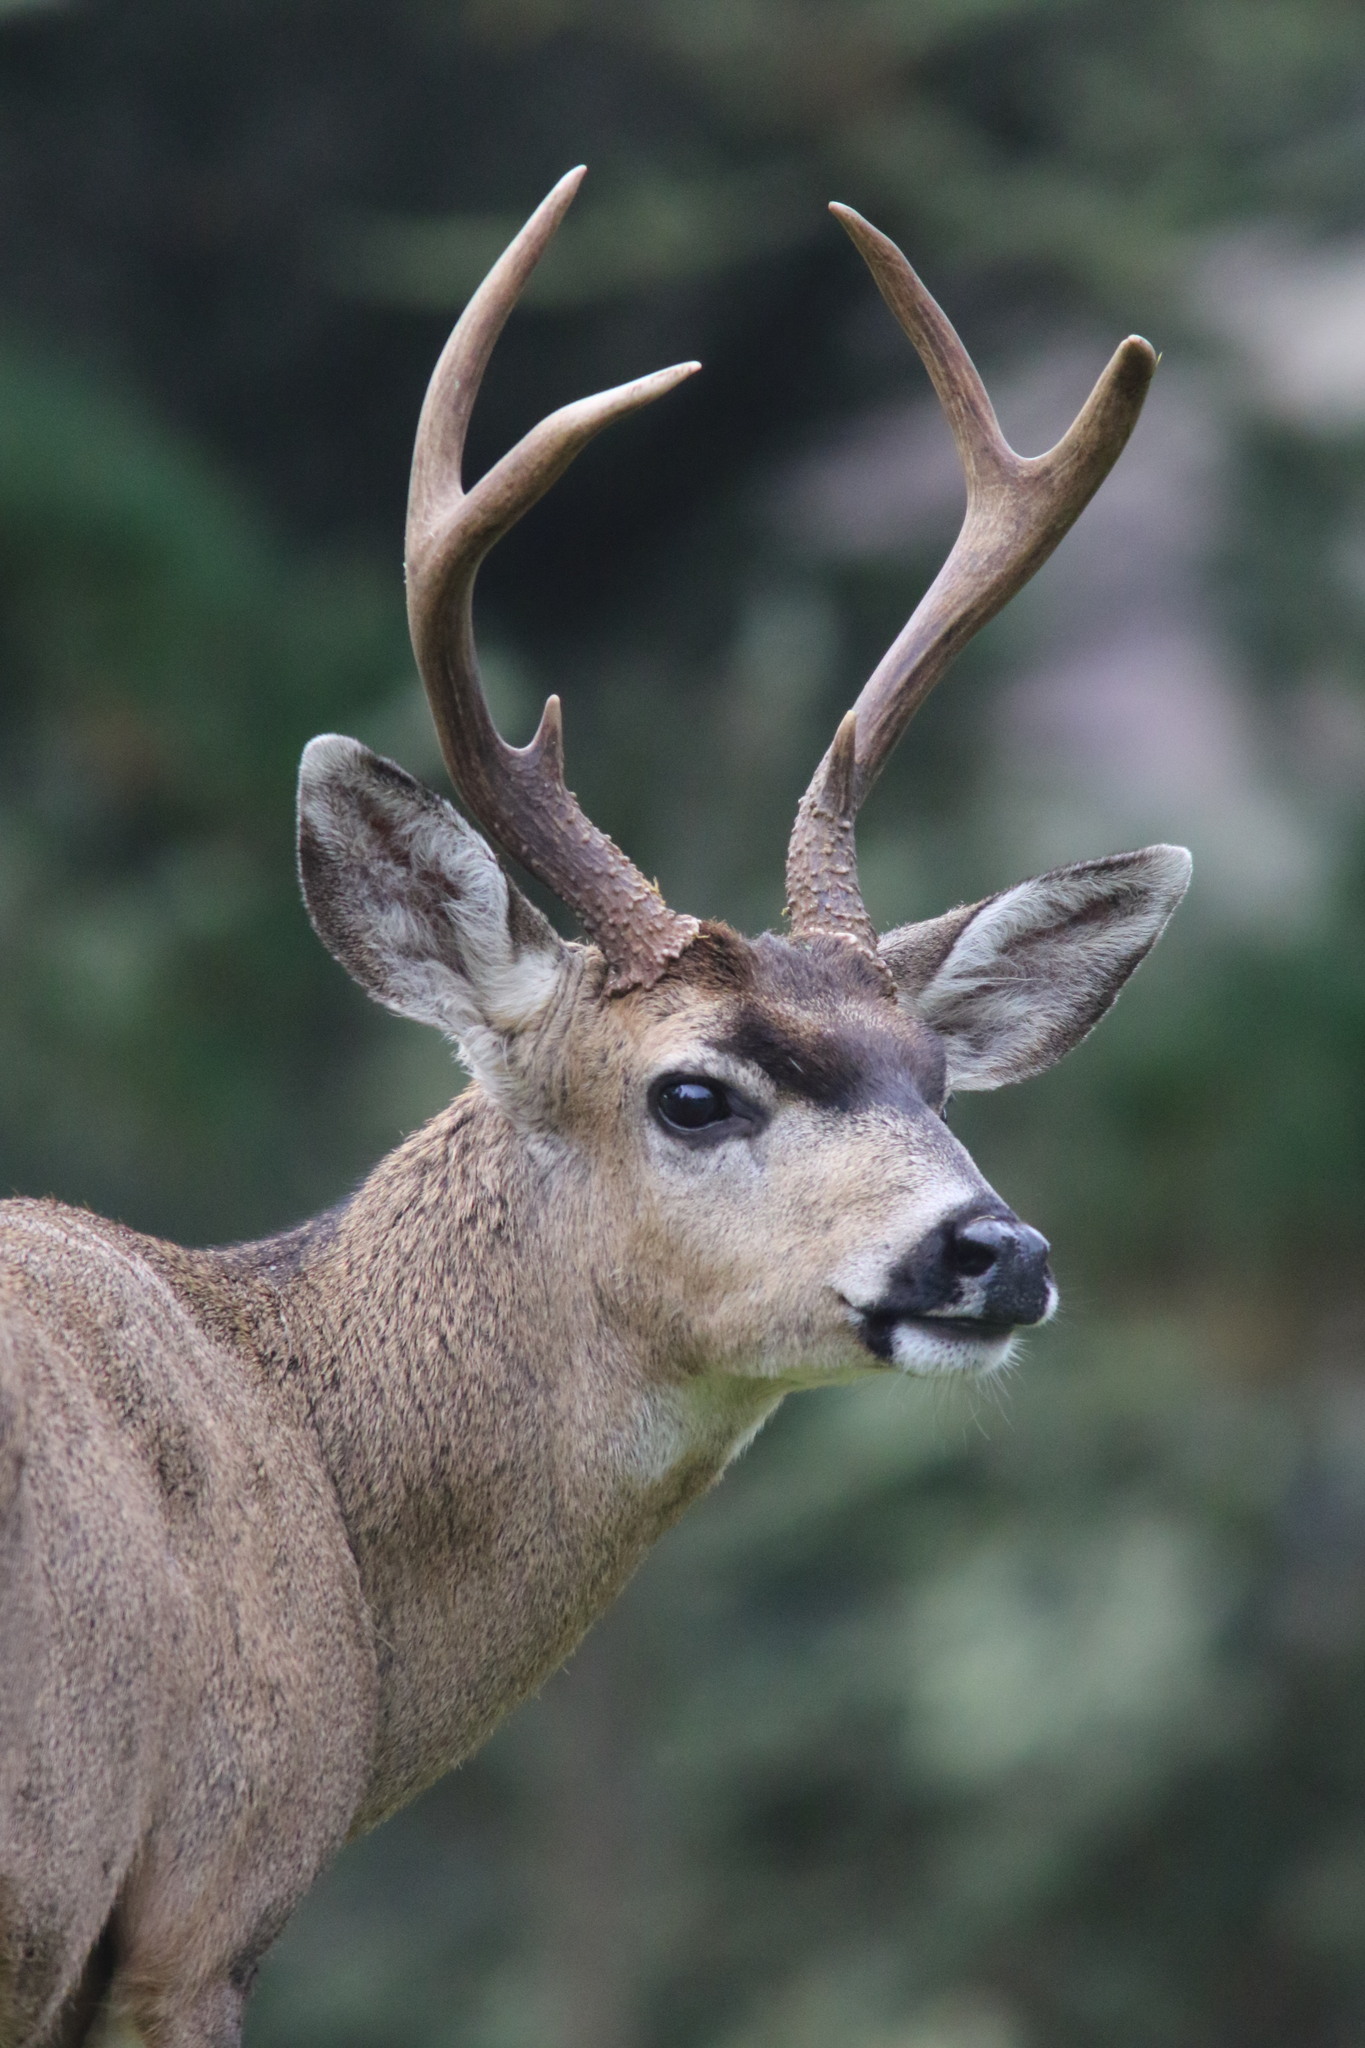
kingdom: Animalia
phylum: Chordata
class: Mammalia
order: Artiodactyla
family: Cervidae
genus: Odocoileus
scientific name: Odocoileus hemionus
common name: Mule deer
